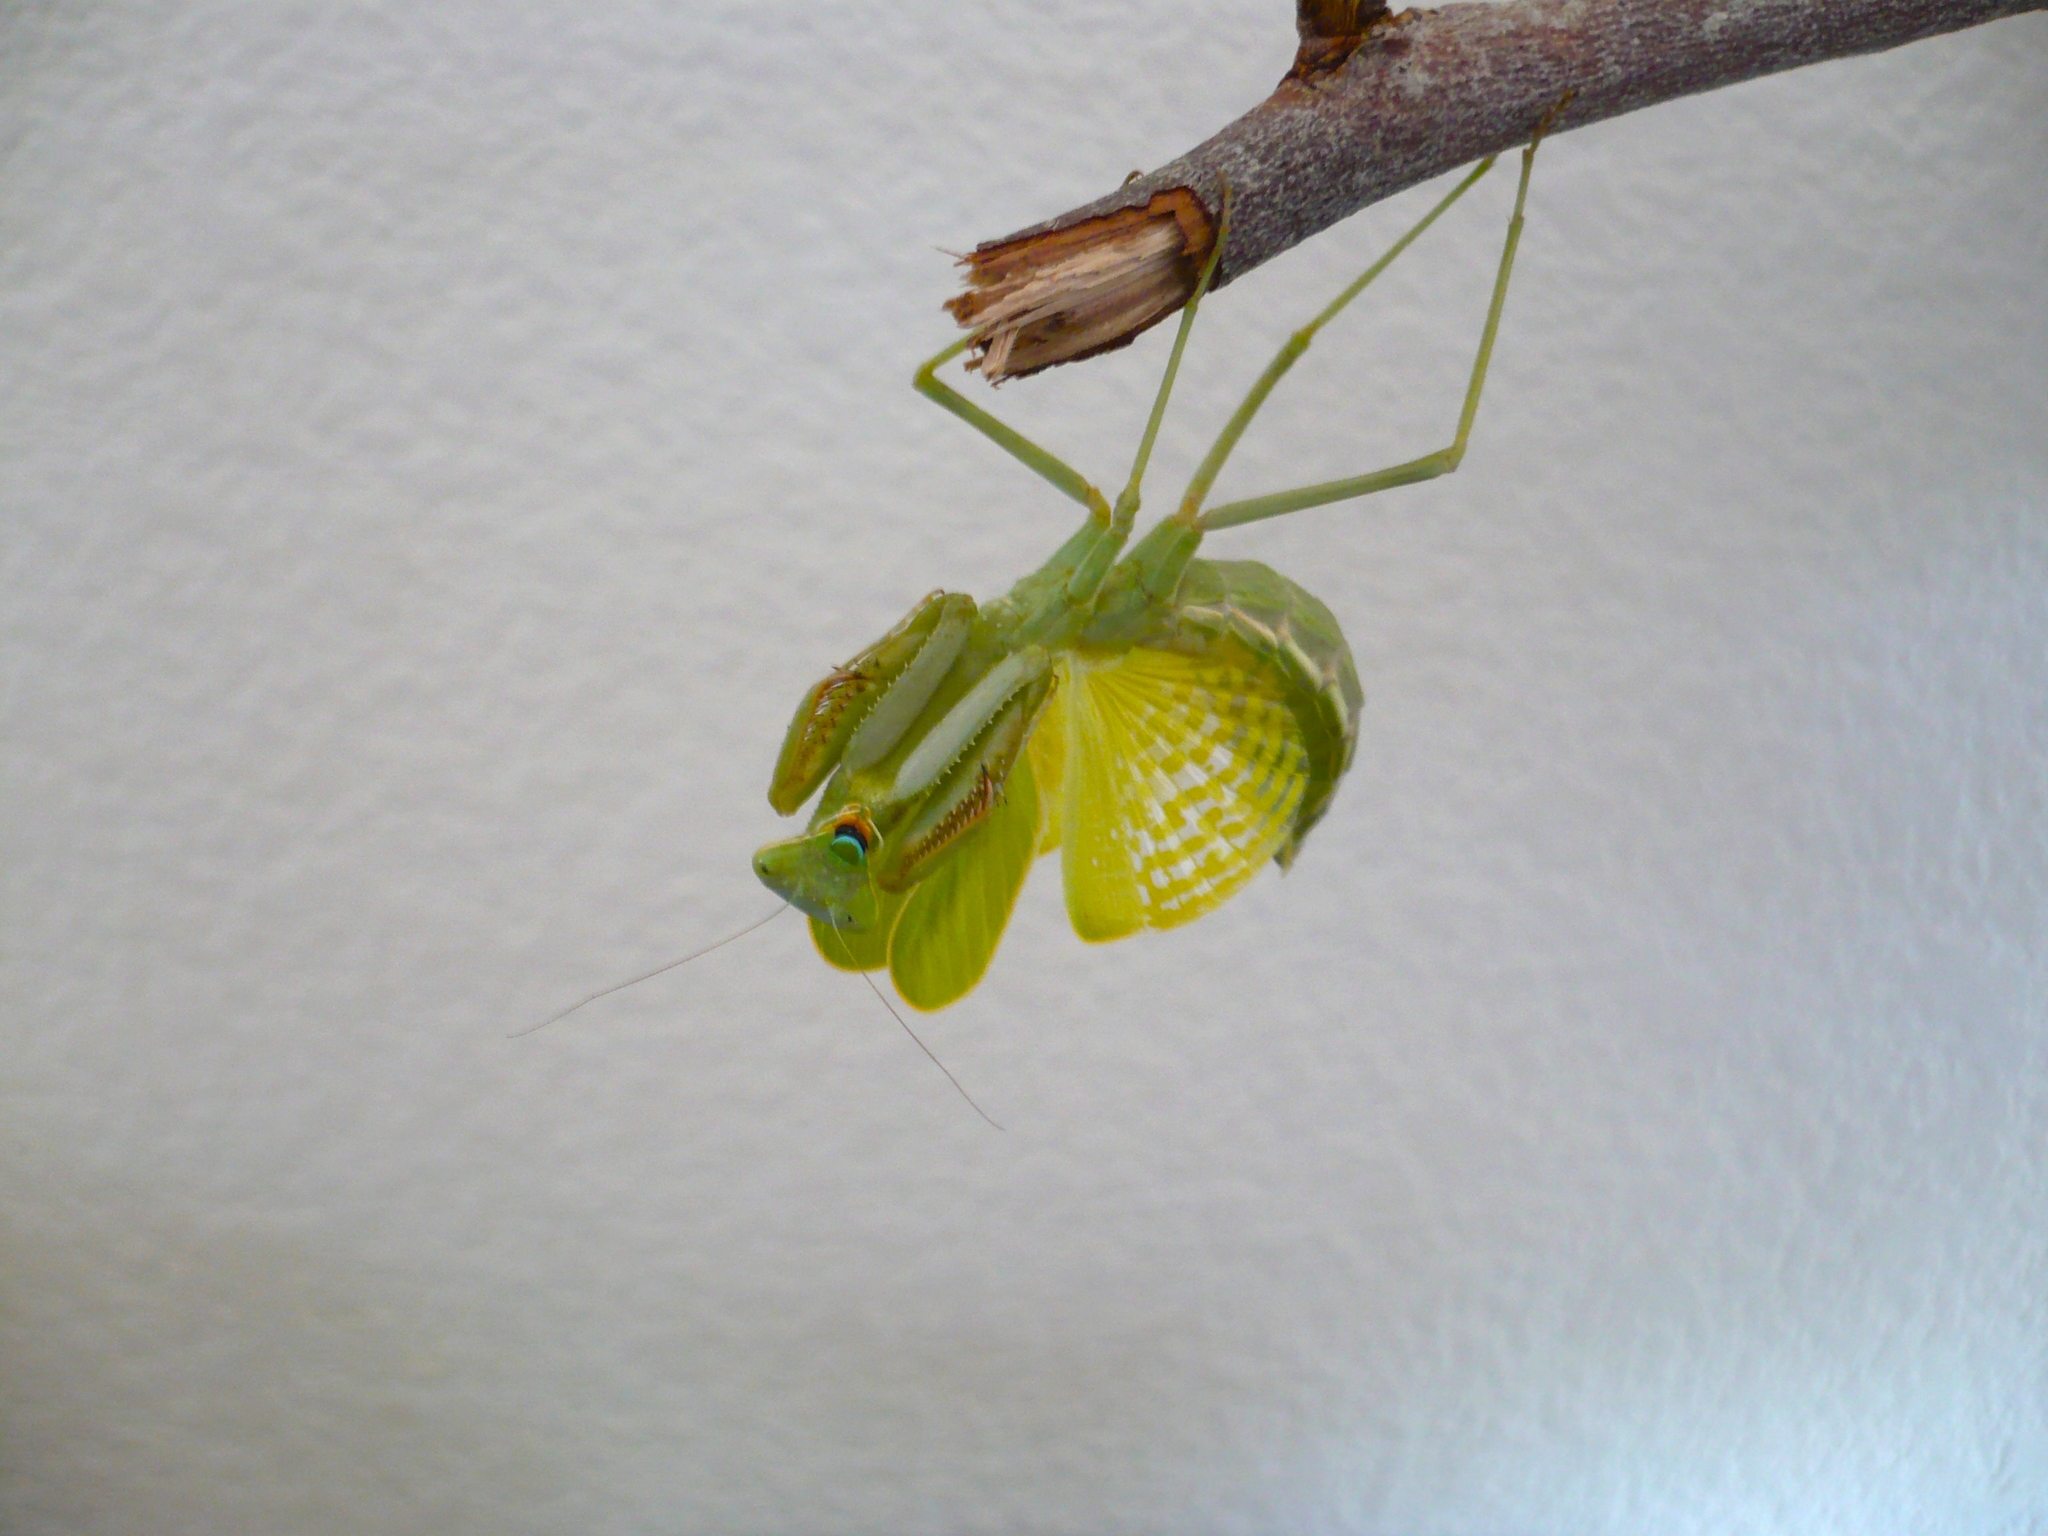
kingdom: Animalia
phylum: Arthropoda
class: Insecta
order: Mantodea
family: Mantidae
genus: Stagmomantis
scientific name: Stagmomantis limbata
